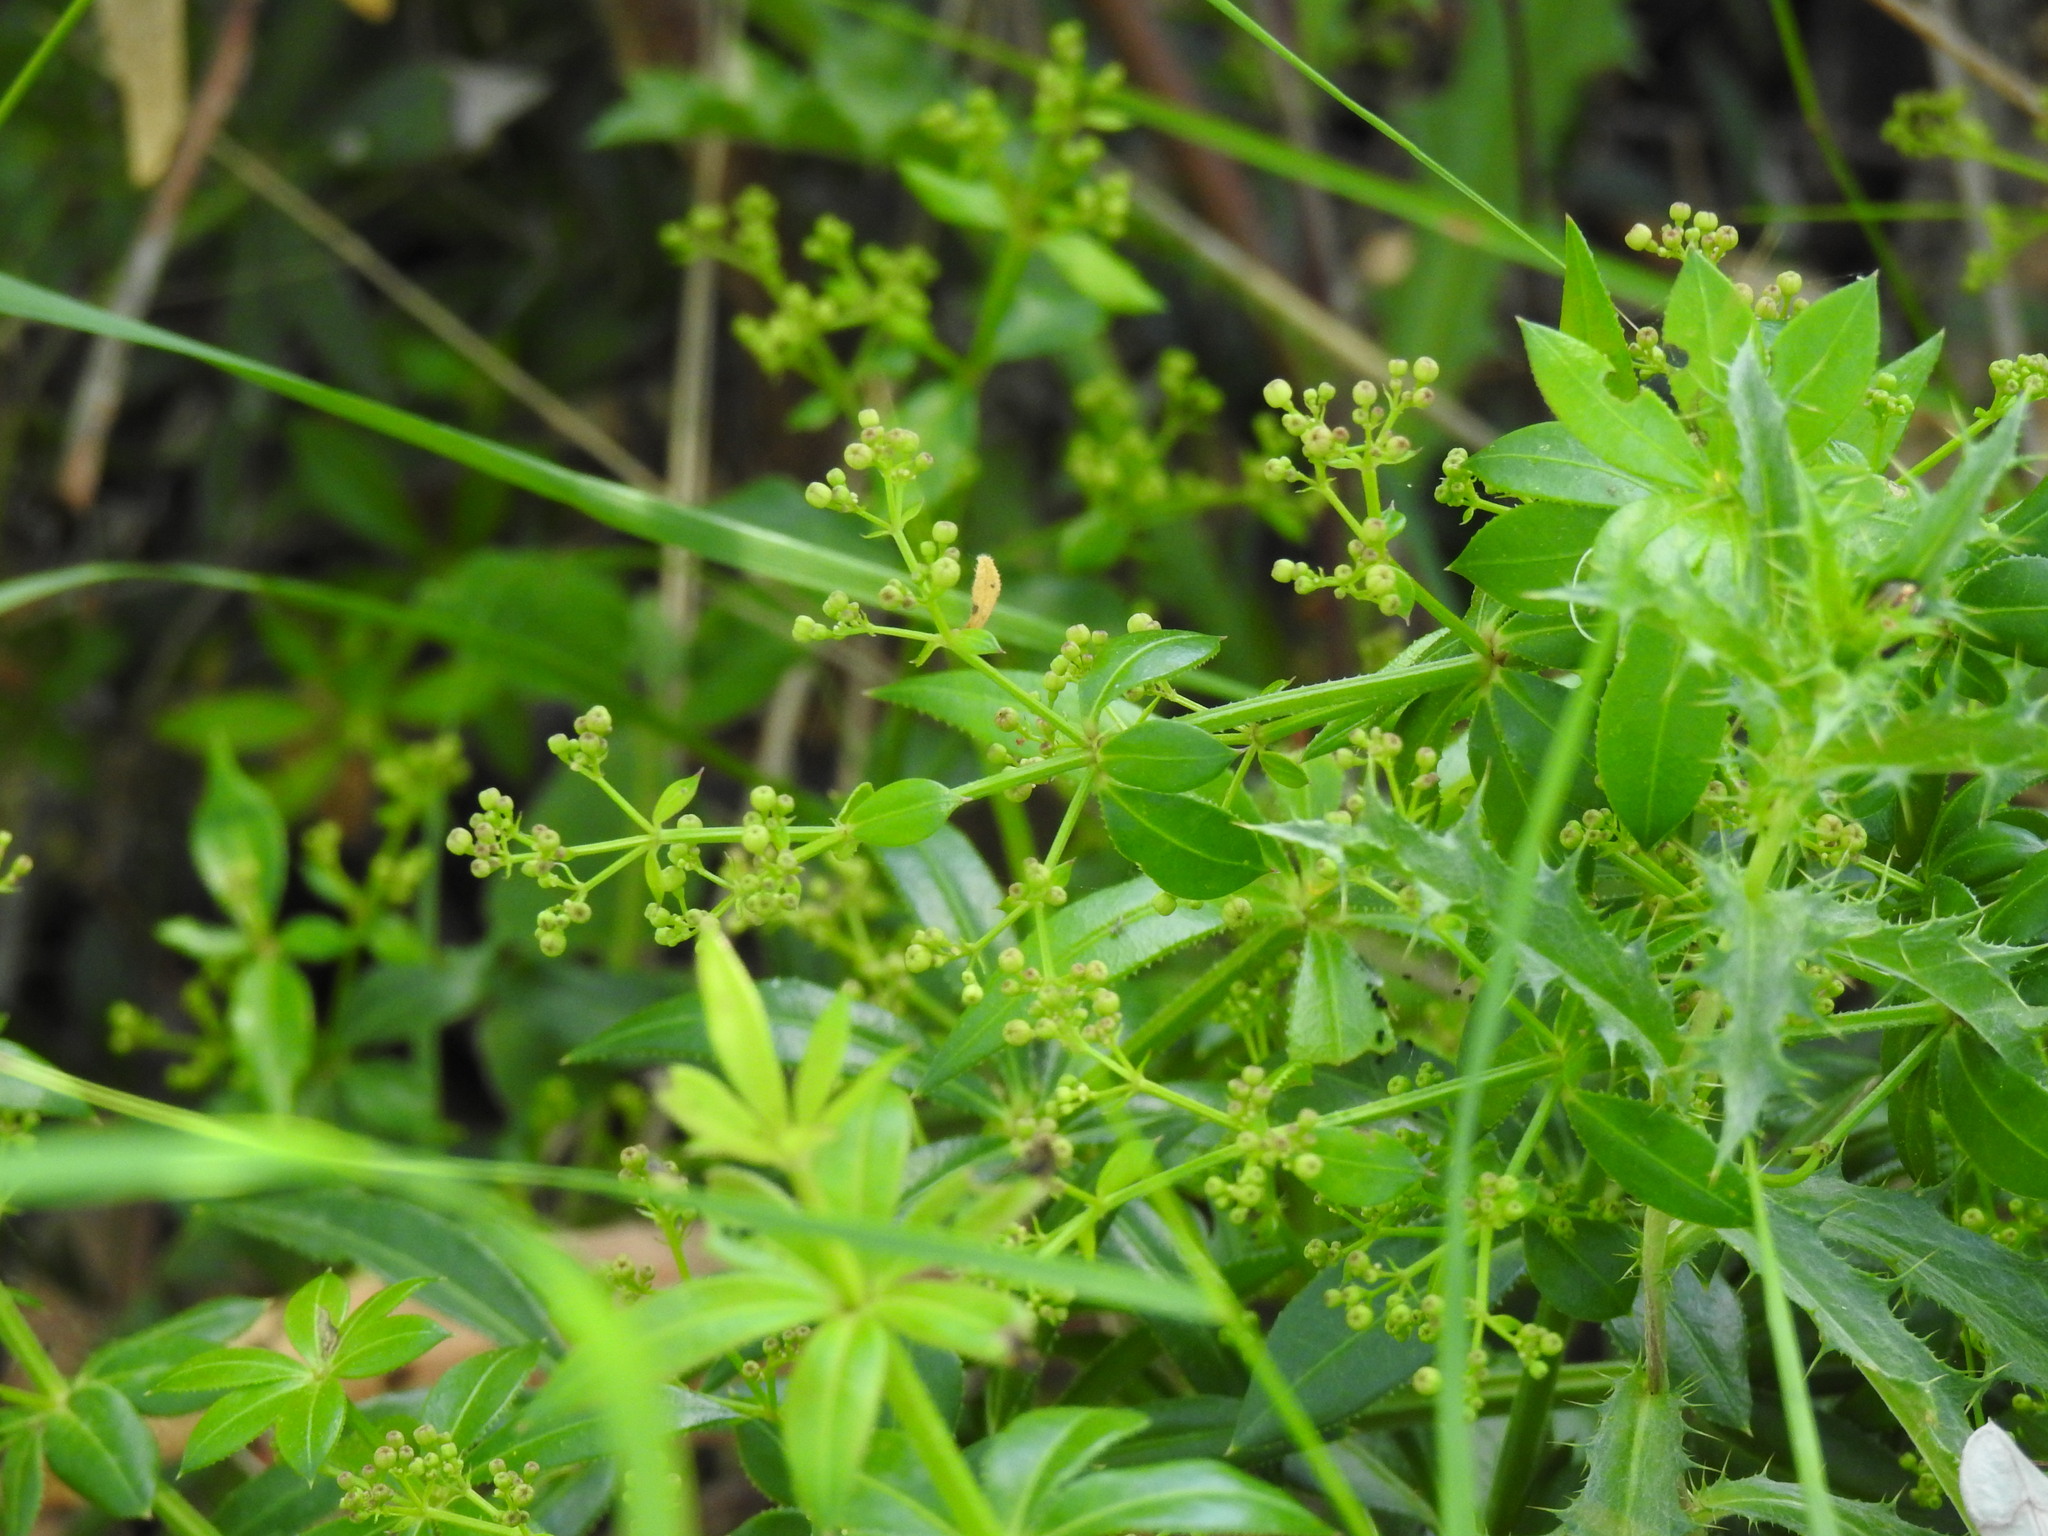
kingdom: Plantae
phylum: Tracheophyta
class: Magnoliopsida
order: Gentianales
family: Rubiaceae
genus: Rubia
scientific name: Rubia peregrina
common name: Wild madder
